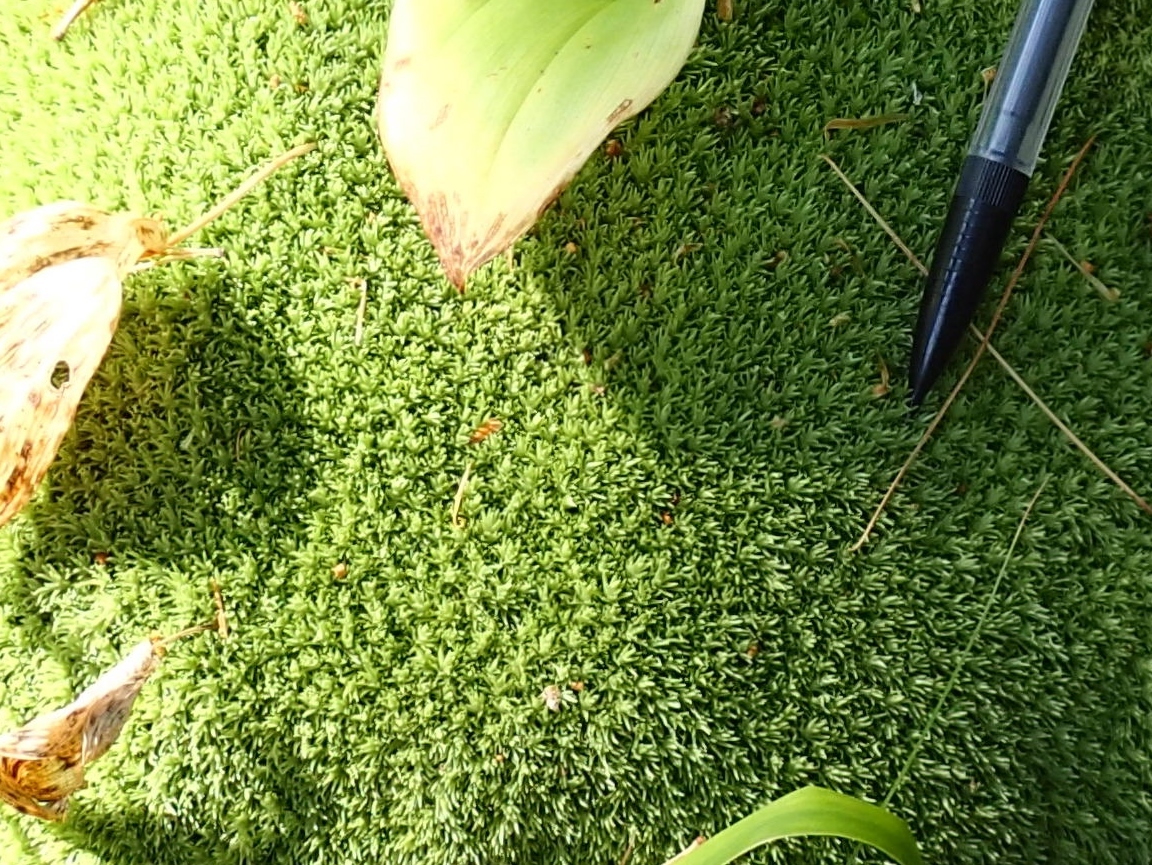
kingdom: Plantae
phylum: Bryophyta
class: Bryopsida
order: Dicranales
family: Leucobryaceae
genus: Leucobryum
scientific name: Leucobryum glaucum
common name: Large white-moss
